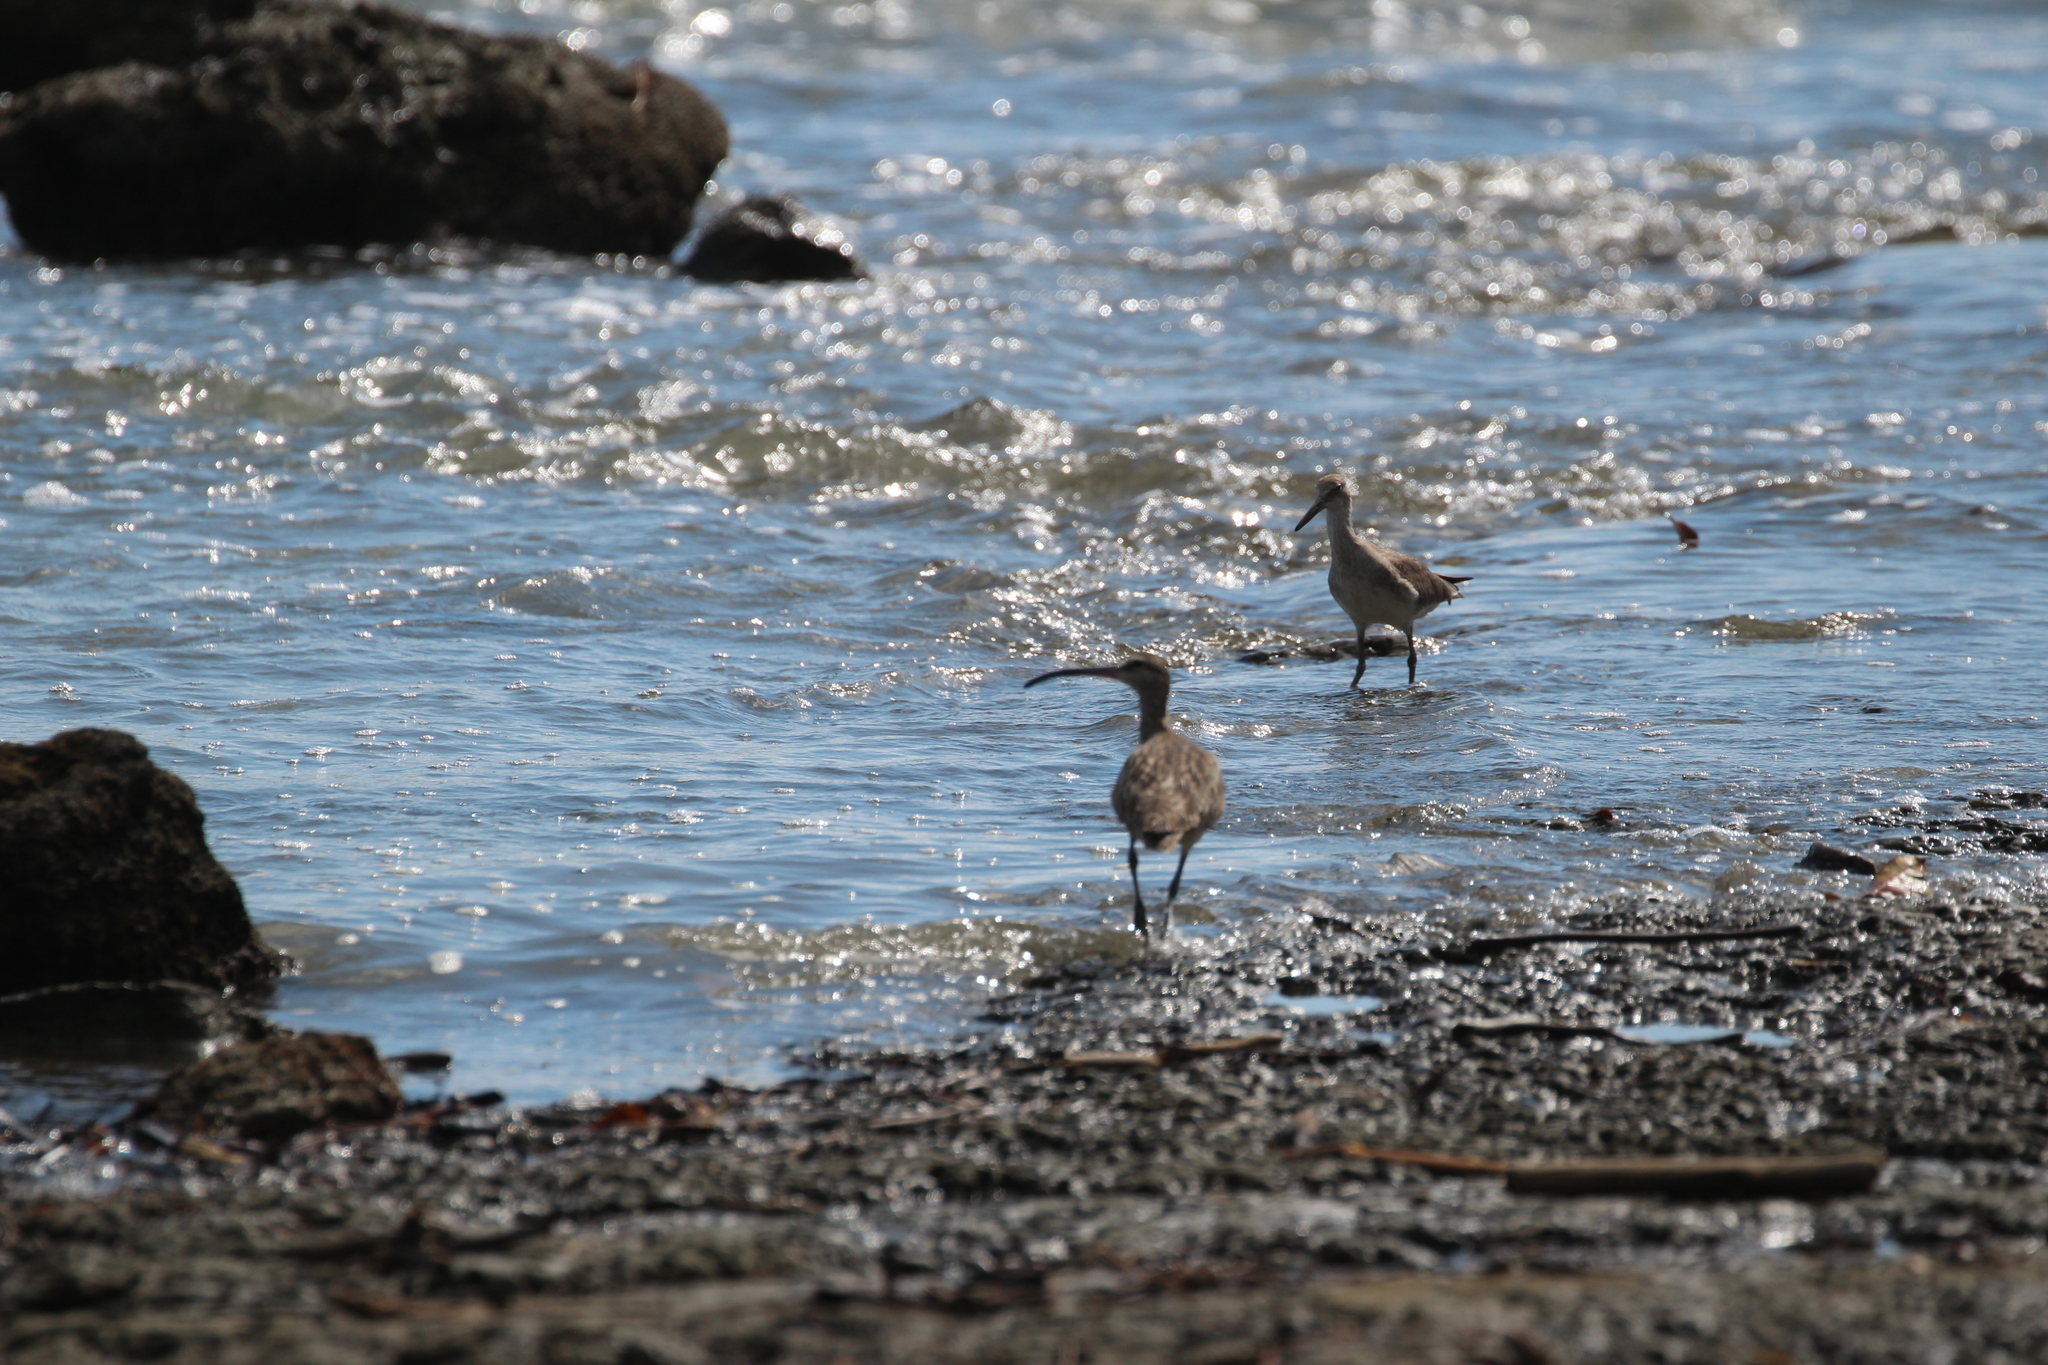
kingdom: Animalia
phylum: Chordata
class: Aves
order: Charadriiformes
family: Scolopacidae
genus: Tringa
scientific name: Tringa semipalmata
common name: Willet
